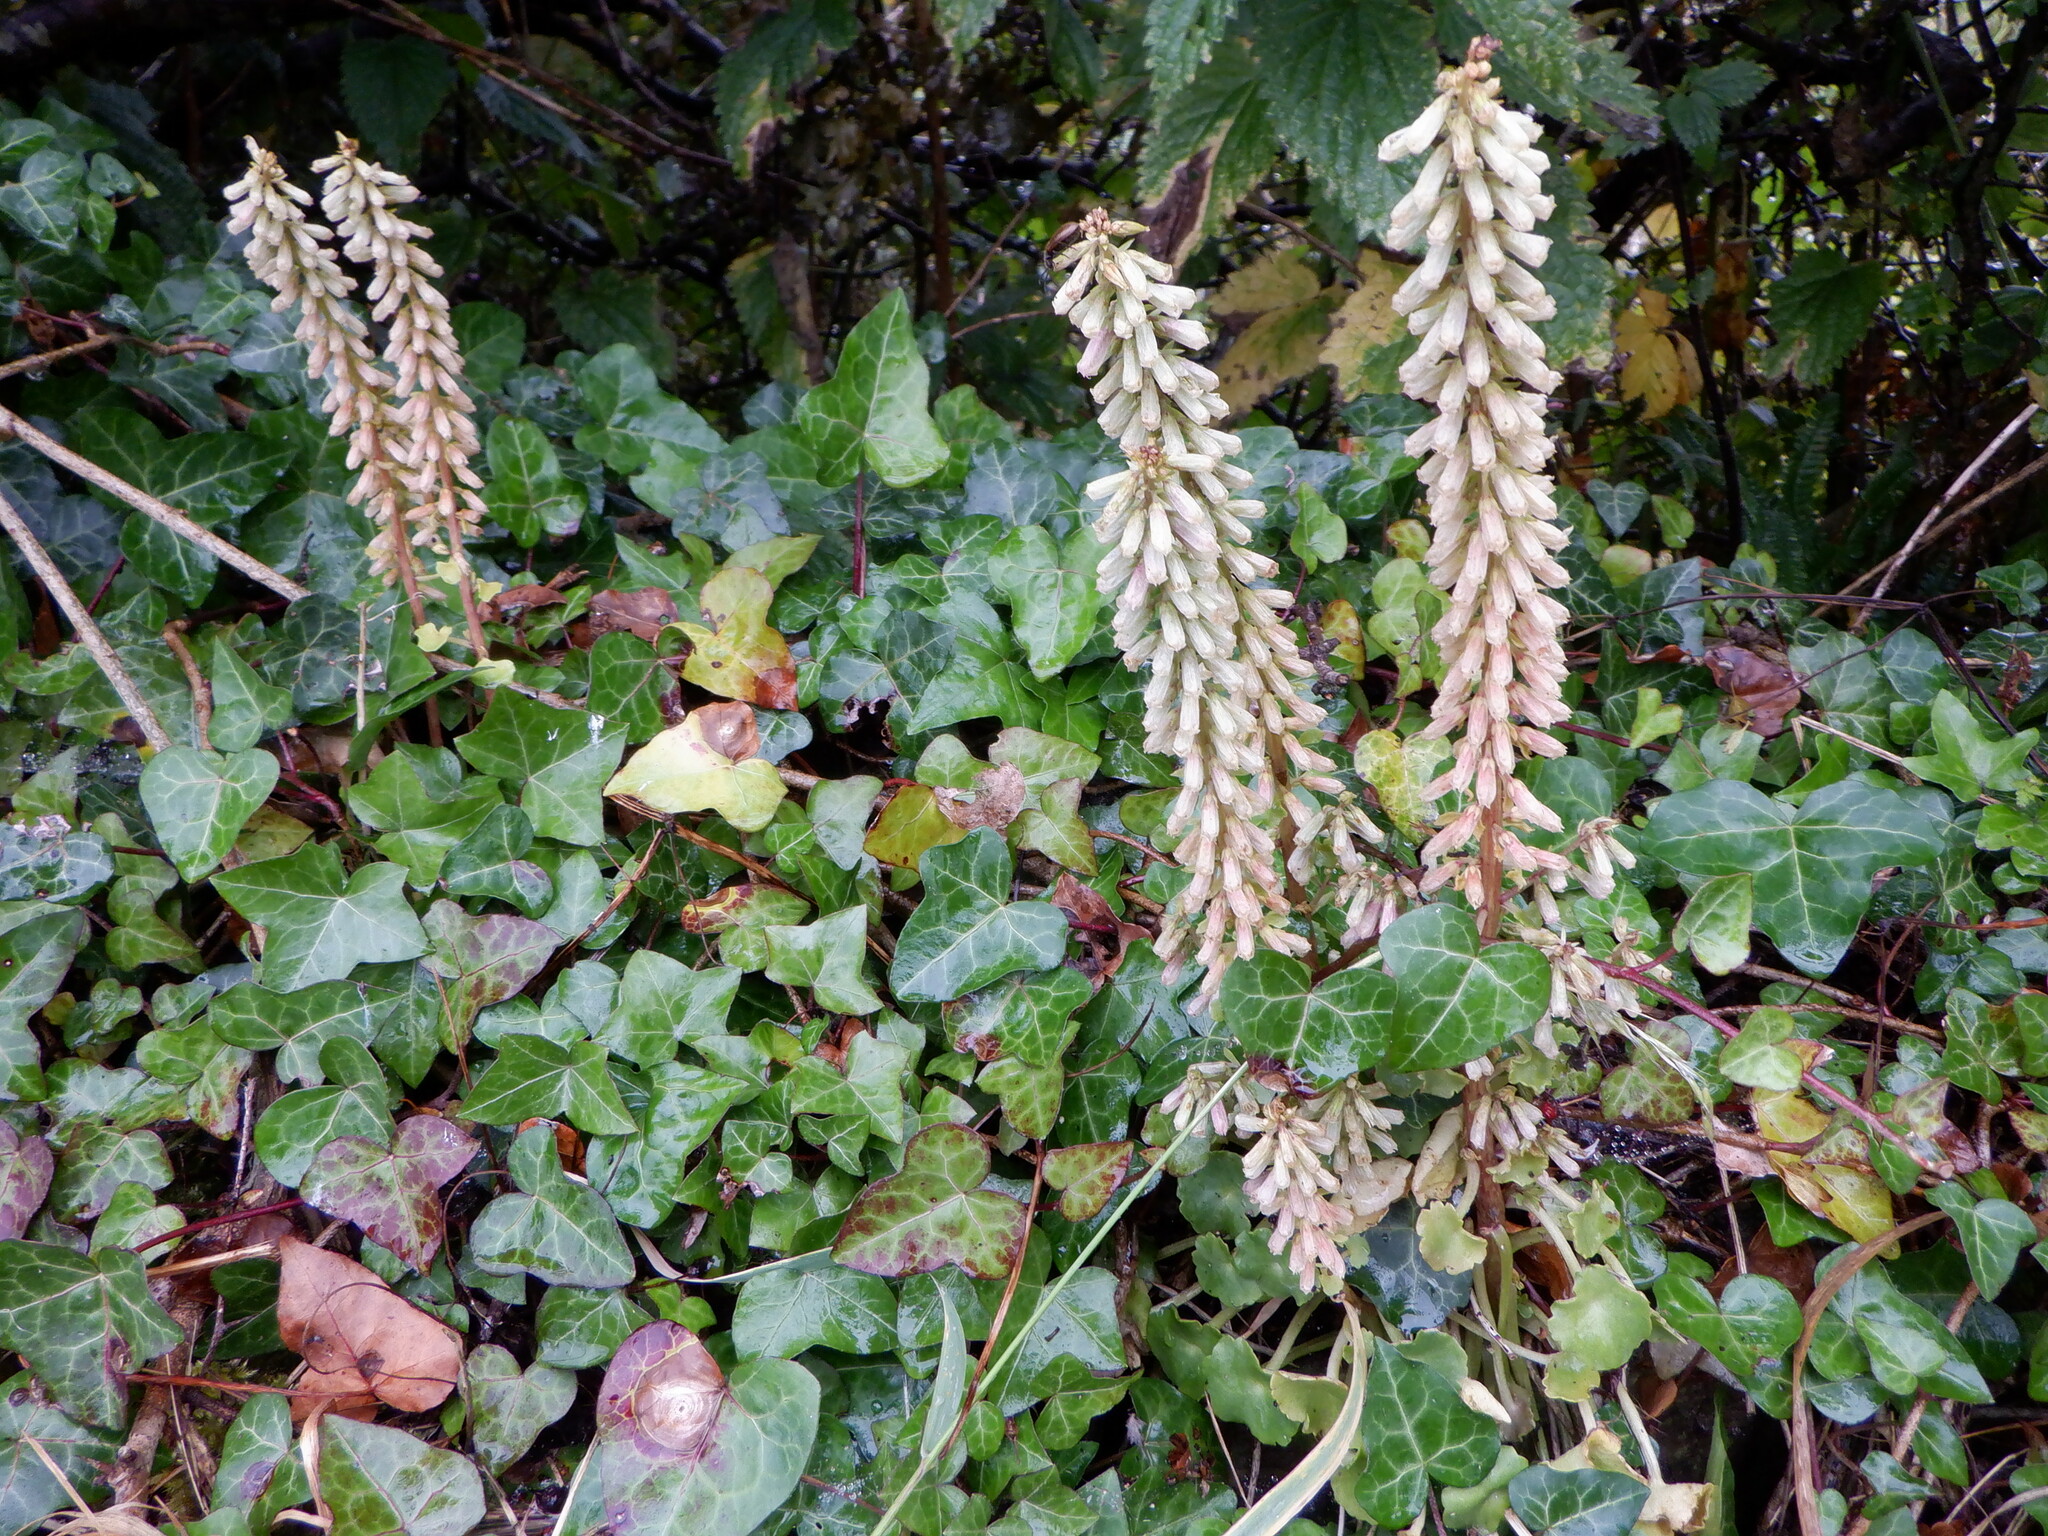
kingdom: Plantae
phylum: Tracheophyta
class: Magnoliopsida
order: Saxifragales
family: Crassulaceae
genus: Umbilicus
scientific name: Umbilicus rupestris
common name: Navelwort
